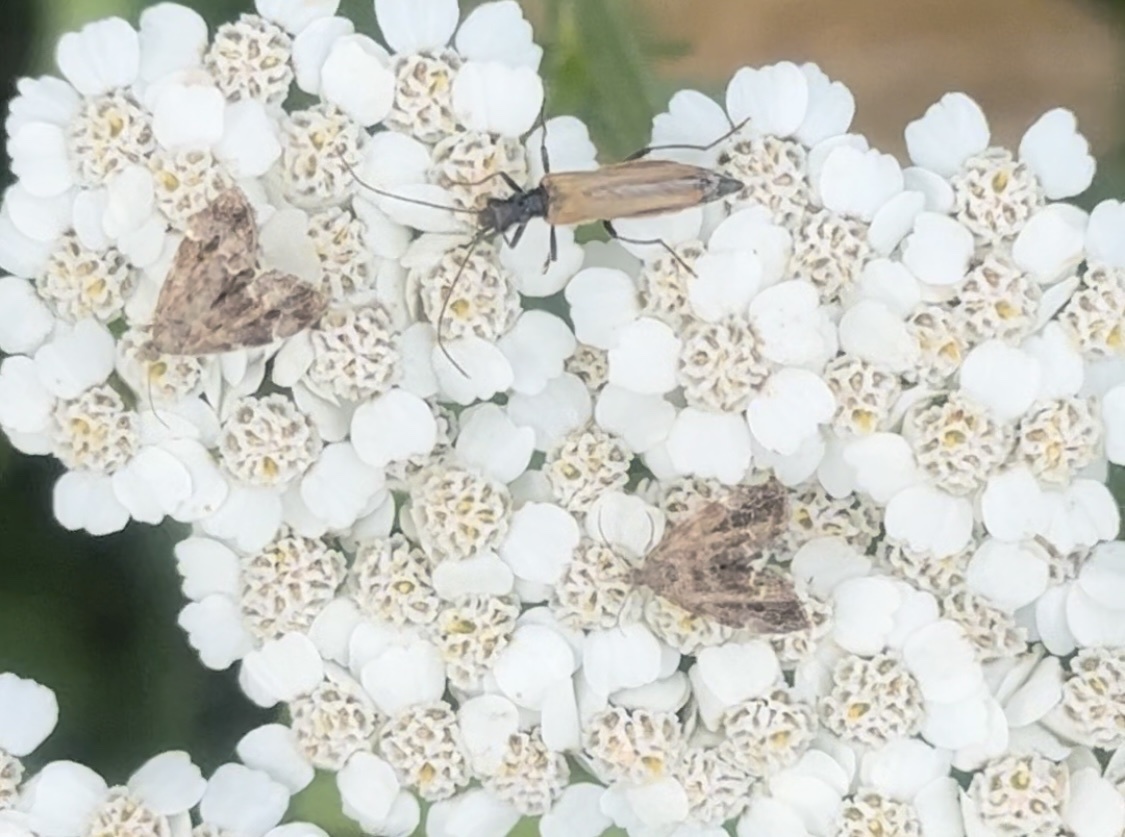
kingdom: Animalia
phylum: Arthropoda
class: Insecta
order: Lepidoptera
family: Choreutidae
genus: Anthophila
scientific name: Anthophila fabriciana
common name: Nettle-tap
